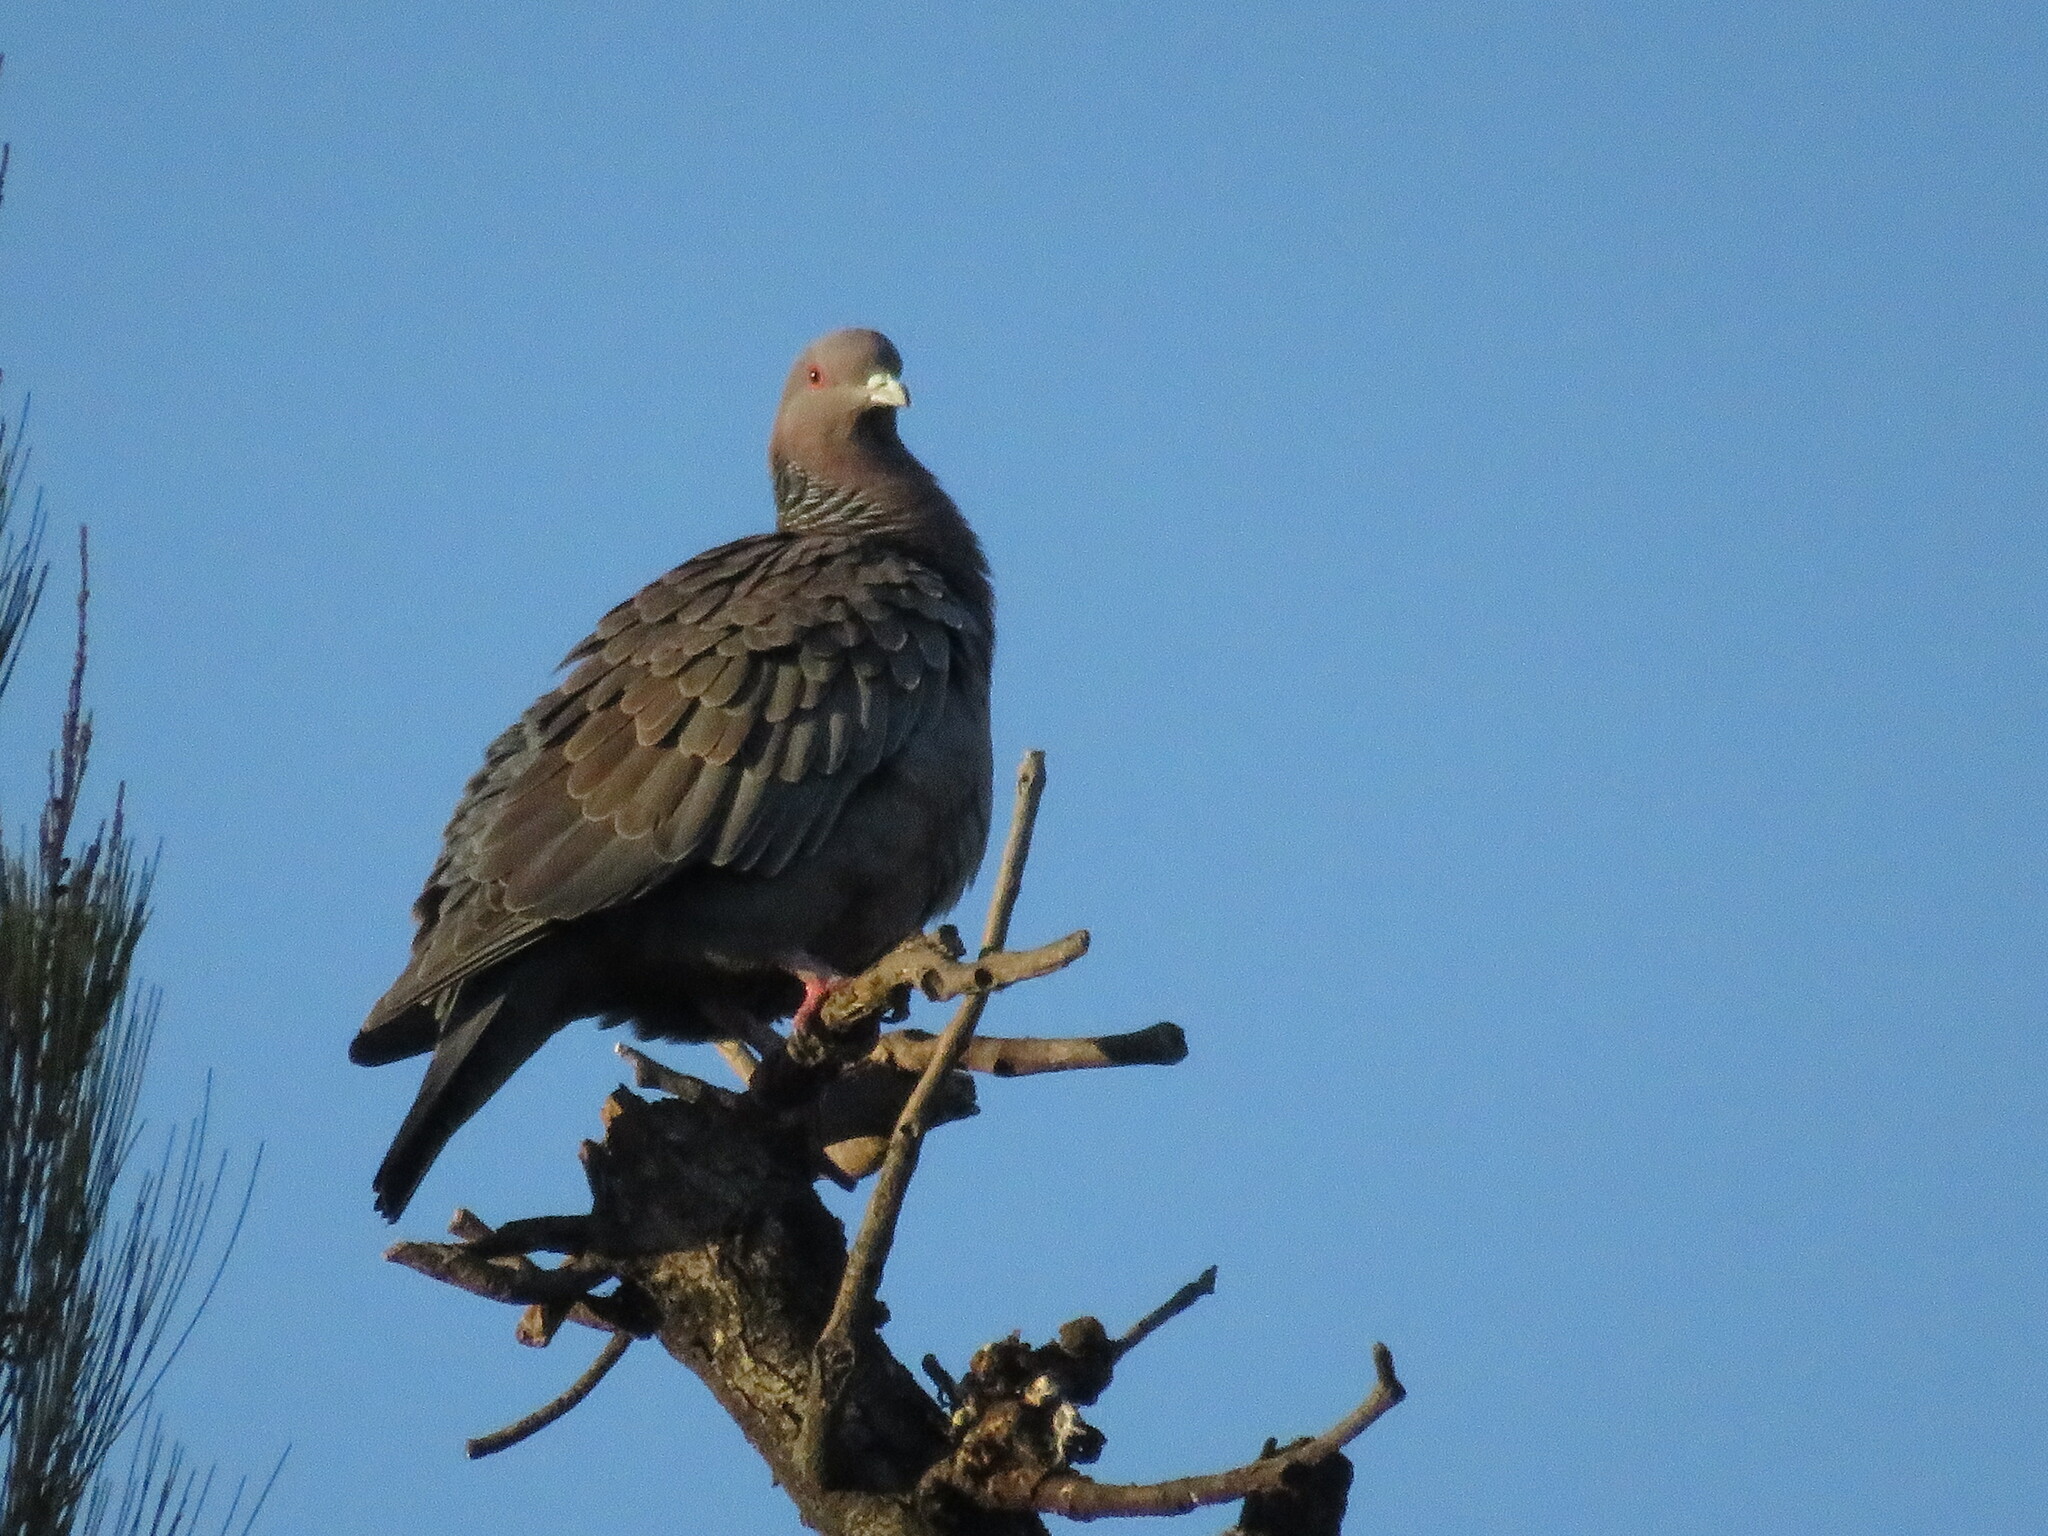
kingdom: Animalia
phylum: Chordata
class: Aves
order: Columbiformes
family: Columbidae
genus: Patagioenas
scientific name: Patagioenas picazuro
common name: Picazuro pigeon
